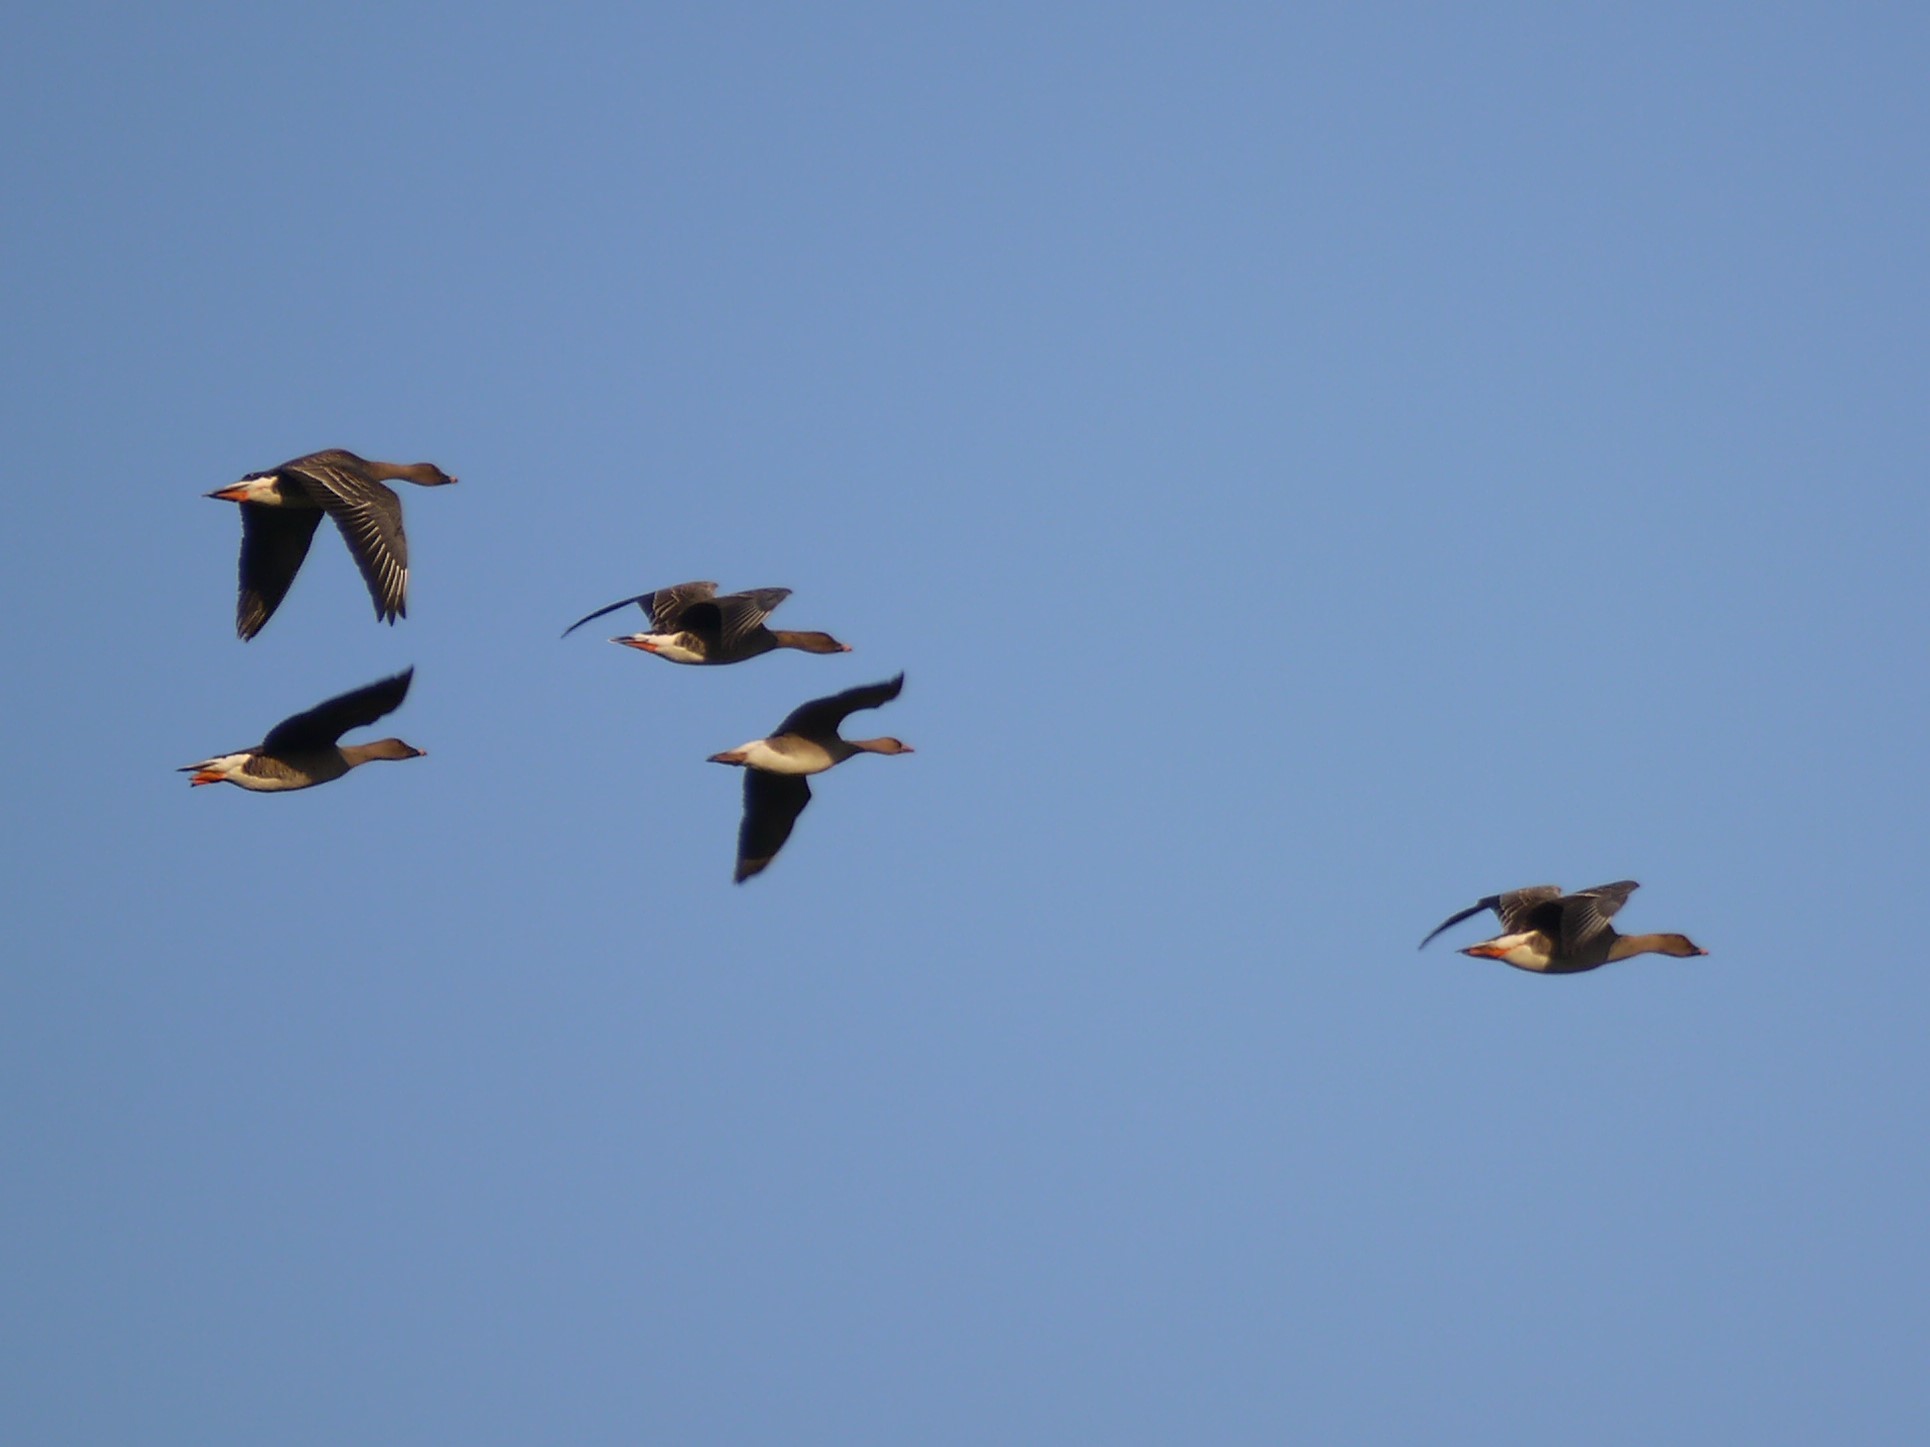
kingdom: Animalia
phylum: Chordata
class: Aves
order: Anseriformes
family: Anatidae
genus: Anser
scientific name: Anser serrirostris
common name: Tundra bean goose
